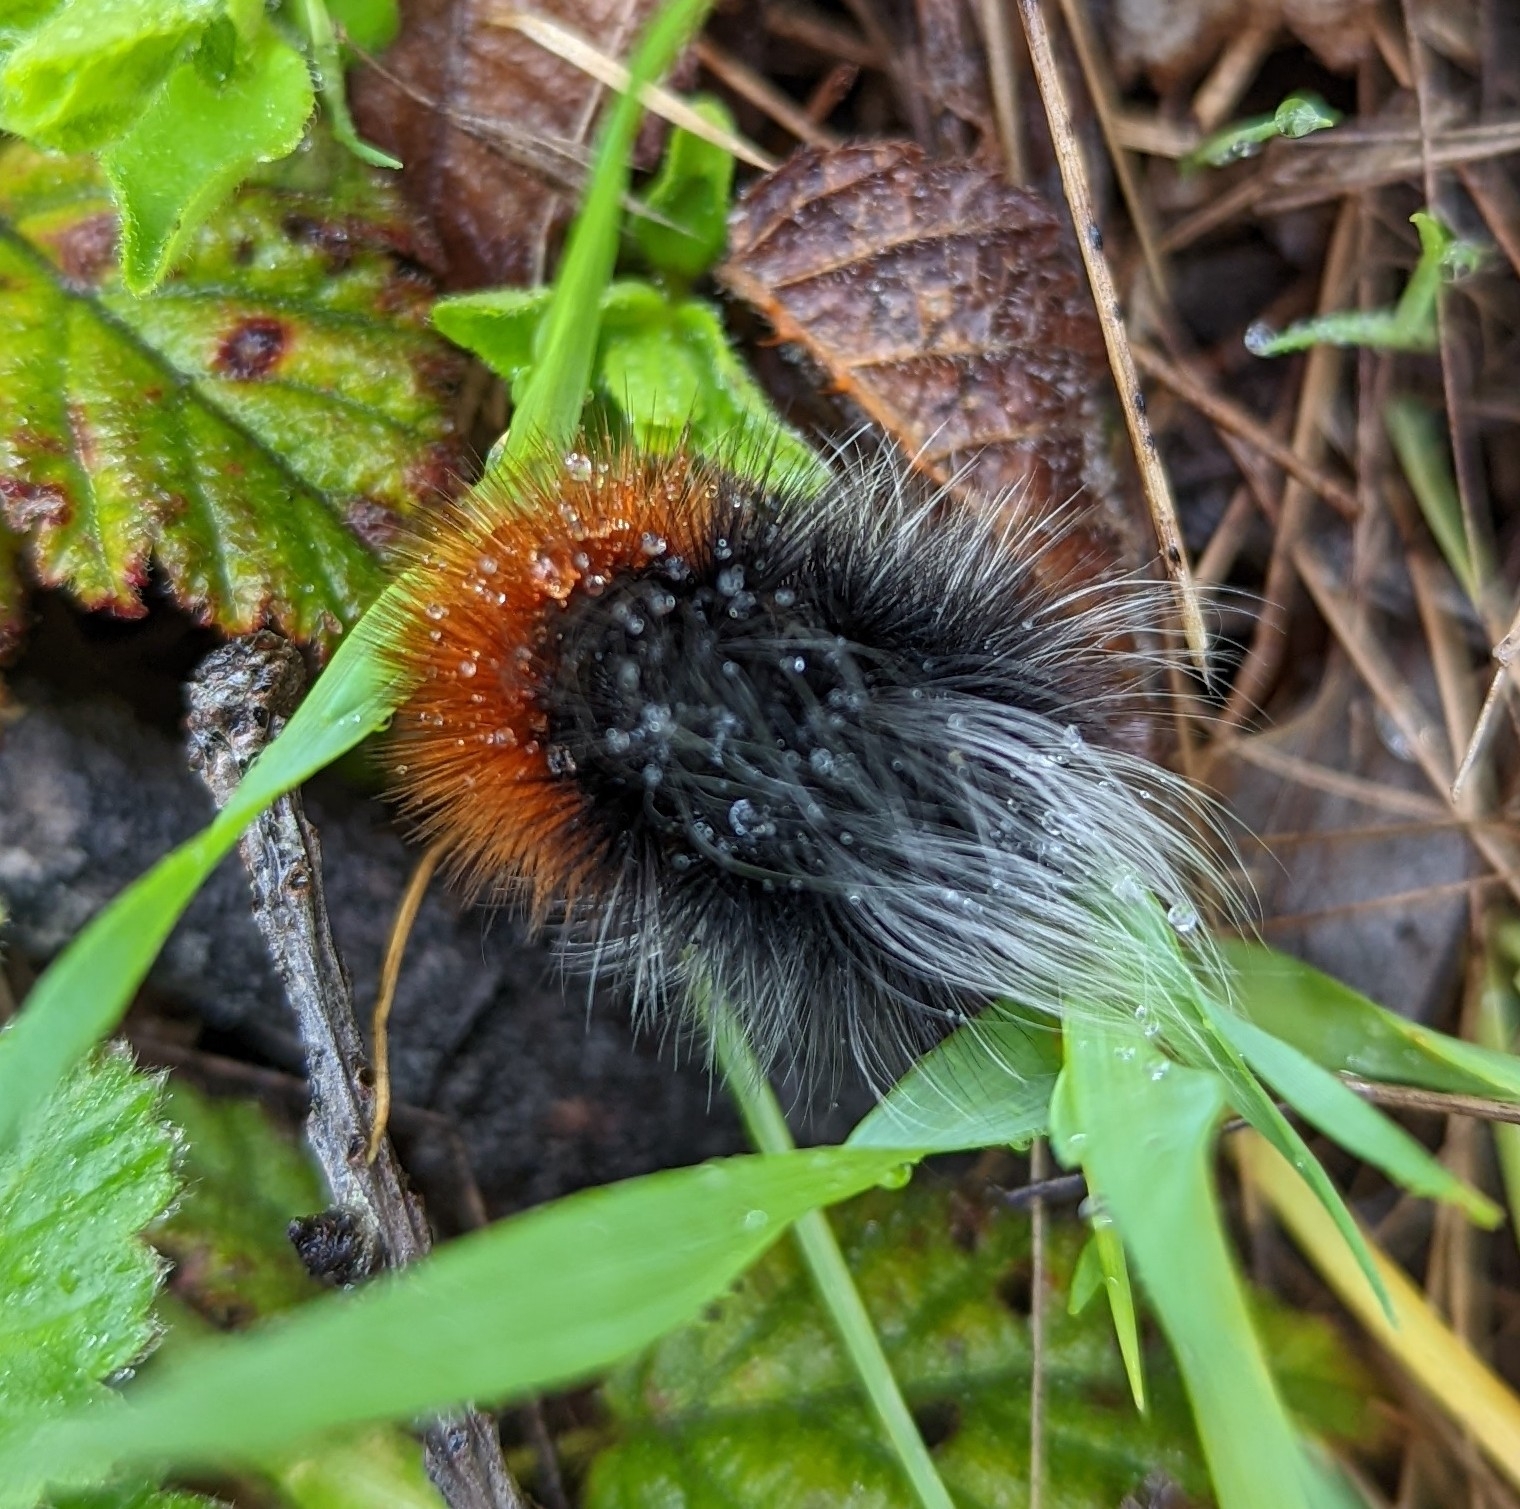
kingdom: Animalia
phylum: Arthropoda
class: Insecta
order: Lepidoptera
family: Erebidae
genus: Arctia
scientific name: Arctia tigrina
